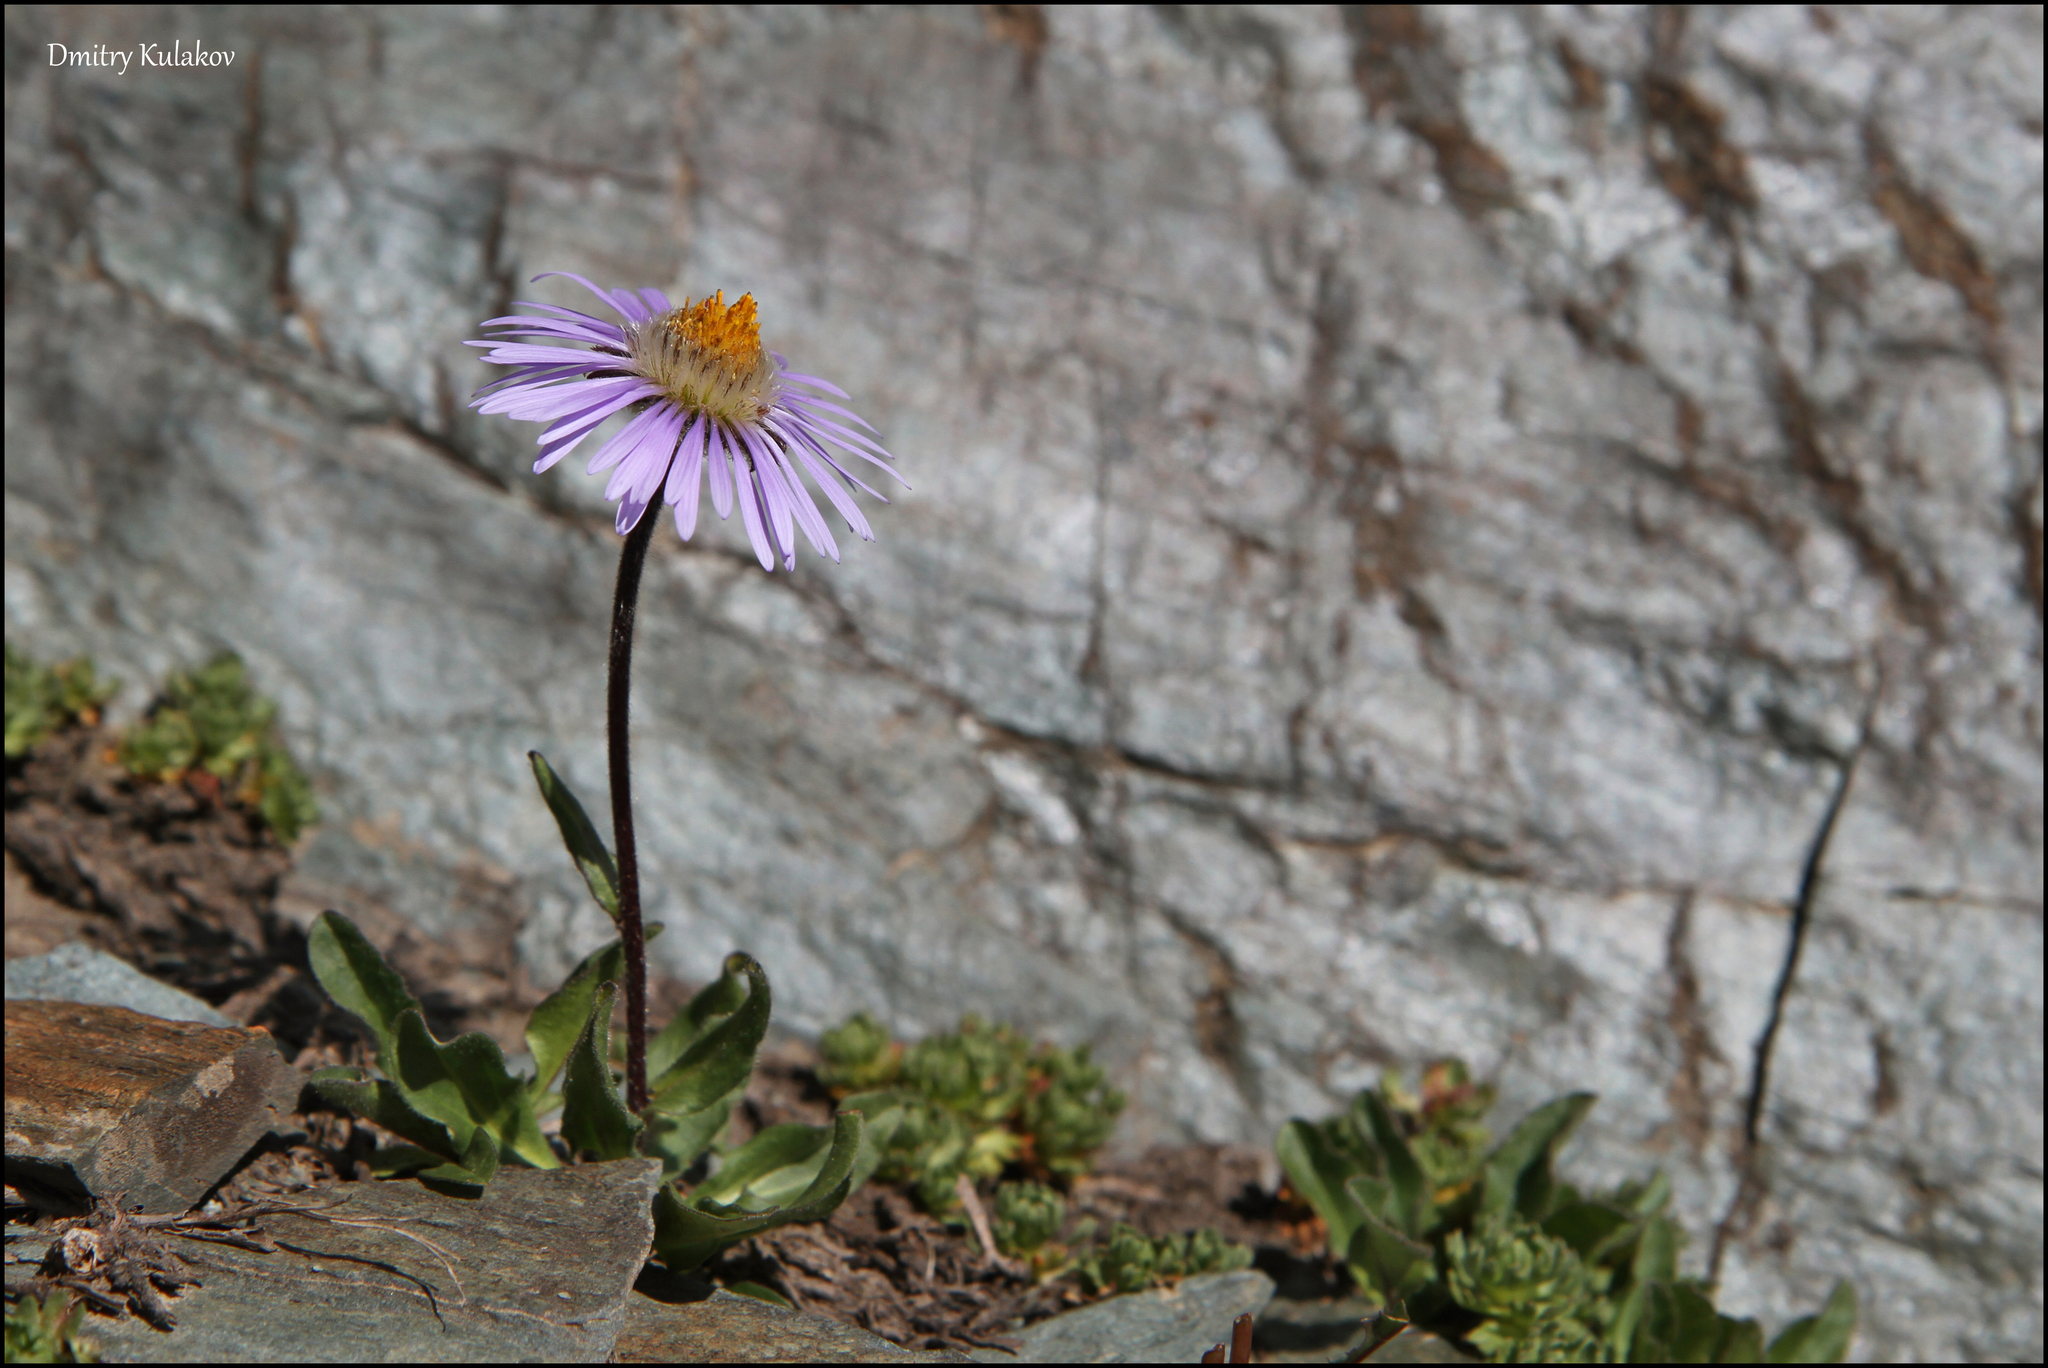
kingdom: Plantae
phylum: Tracheophyta
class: Magnoliopsida
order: Asterales
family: Asteraceae
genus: Tibetiodes
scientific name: Tibetiodes
